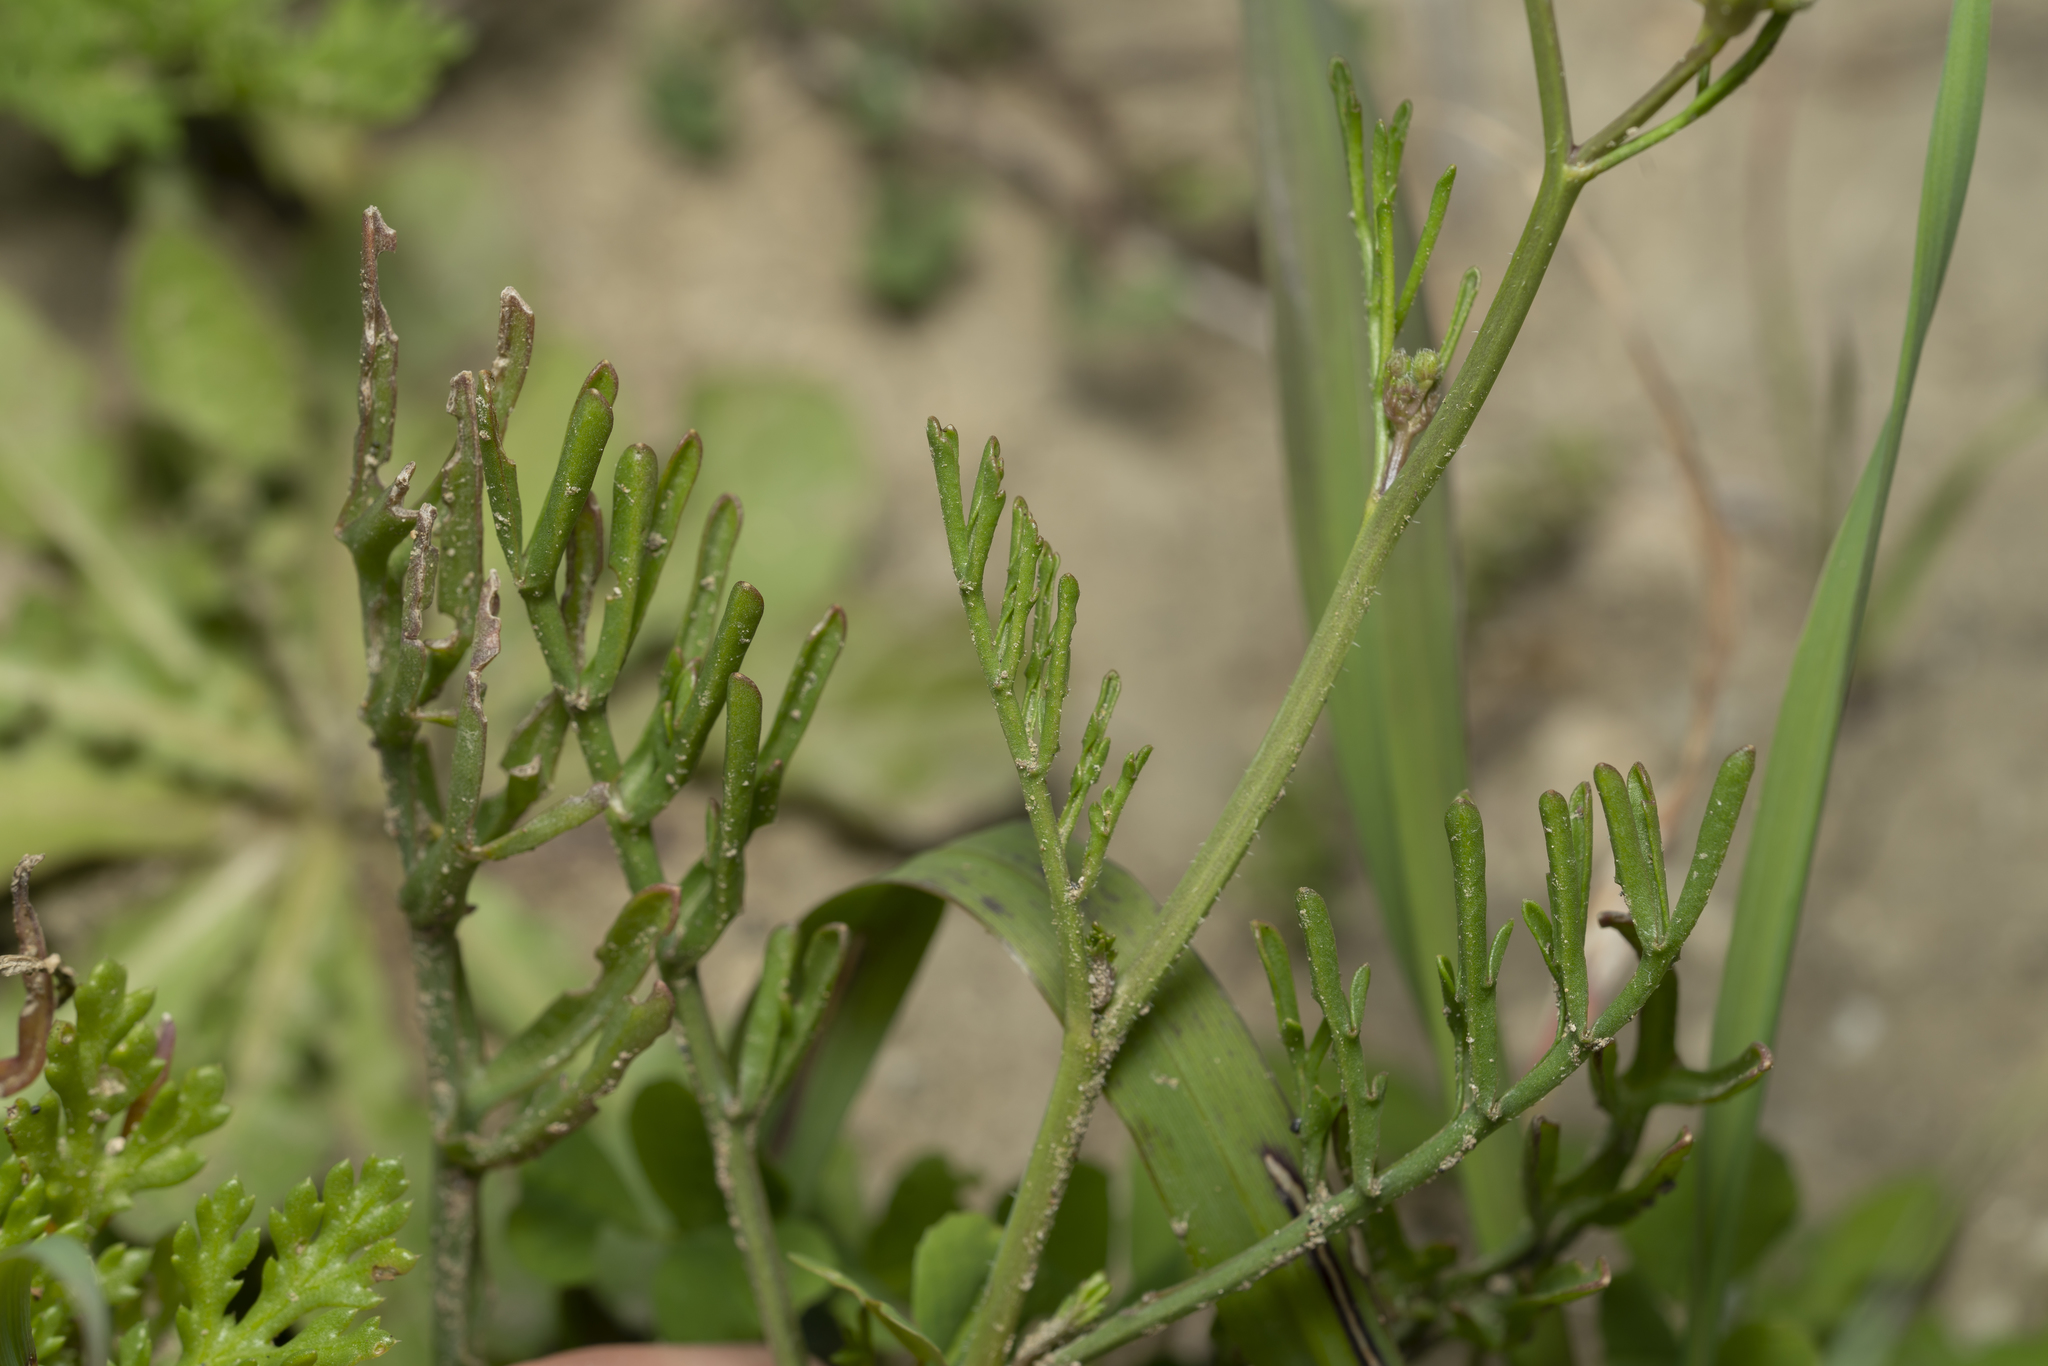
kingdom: Plantae
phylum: Tracheophyta
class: Magnoliopsida
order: Brassicales
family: Brassicaceae
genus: Erucaria
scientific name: Erucaria hispanica
